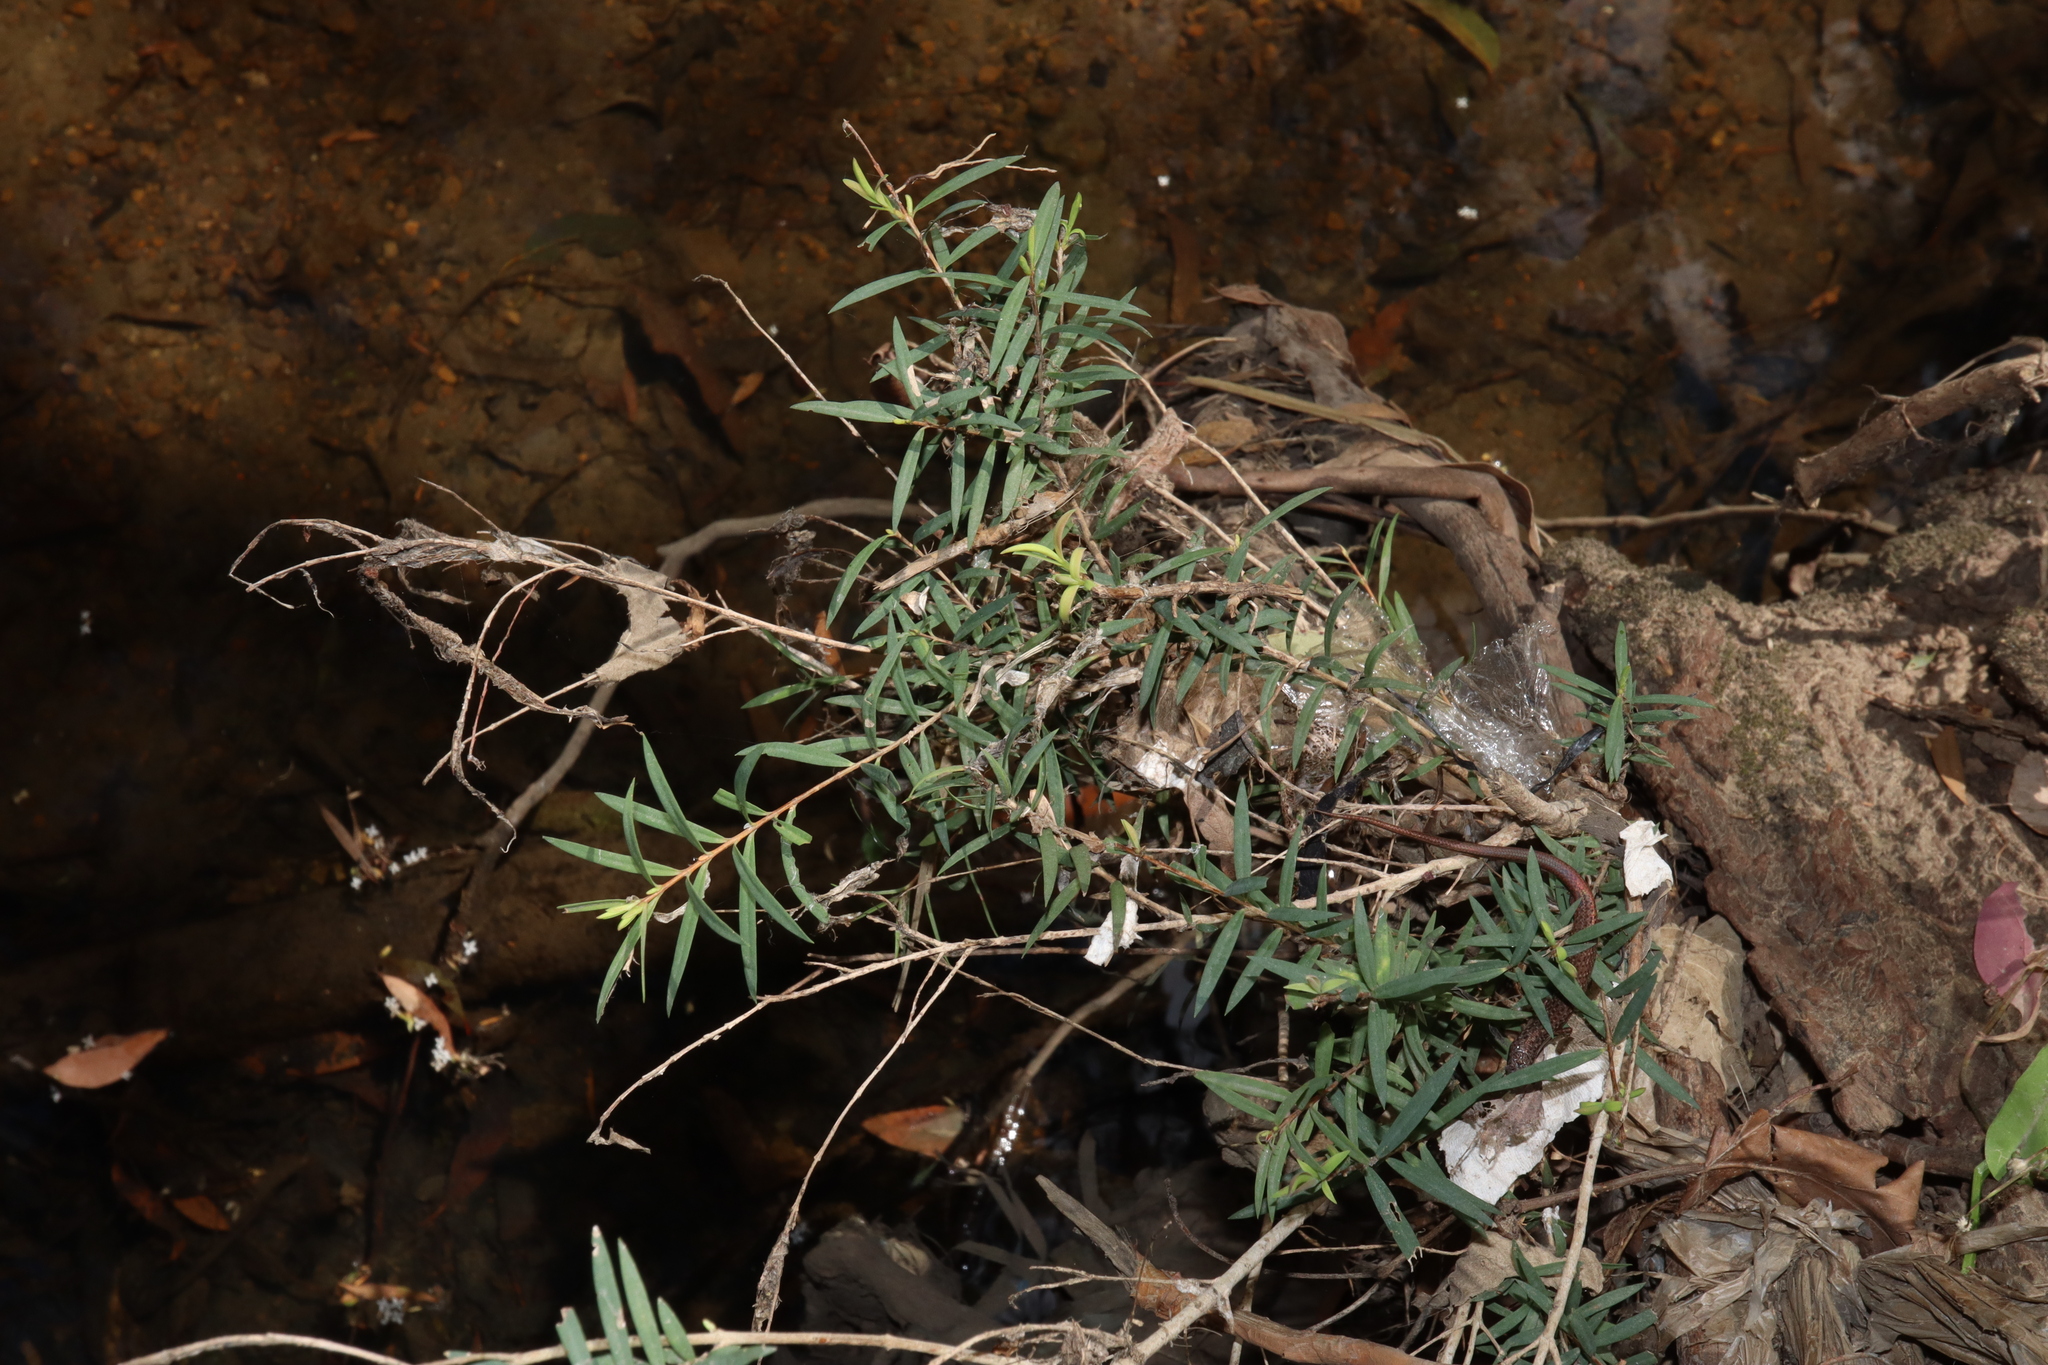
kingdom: Plantae
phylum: Tracheophyta
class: Magnoliopsida
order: Myrtales
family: Myrtaceae
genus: Melaleuca
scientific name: Melaleuca linariifolia
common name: Cajeput tree
